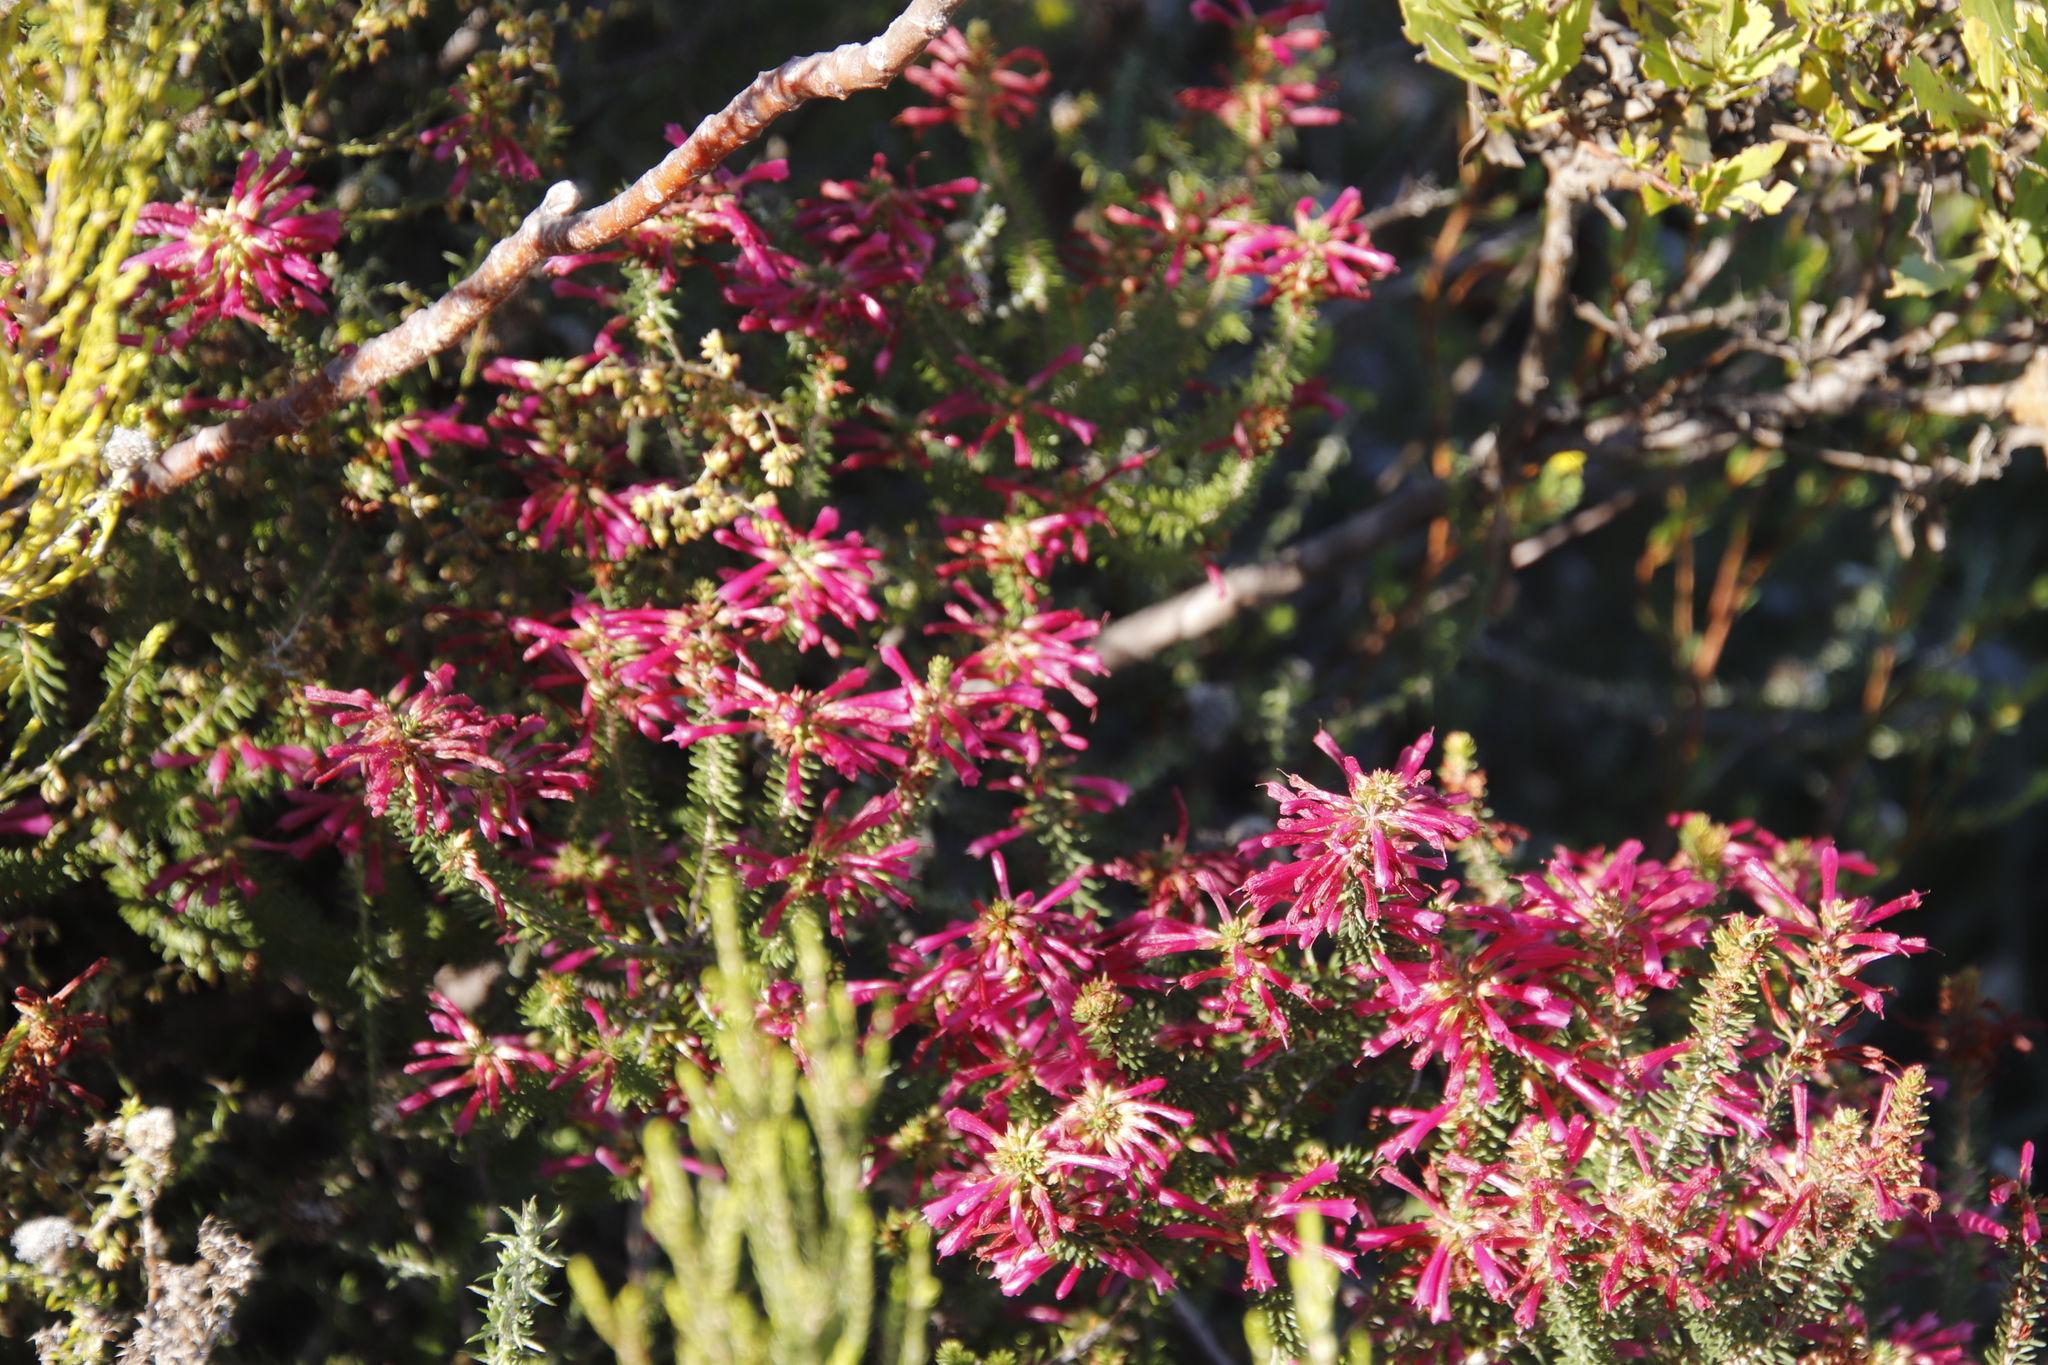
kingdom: Plantae
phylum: Tracheophyta
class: Magnoliopsida
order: Ericales
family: Ericaceae
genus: Erica
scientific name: Erica abietina
